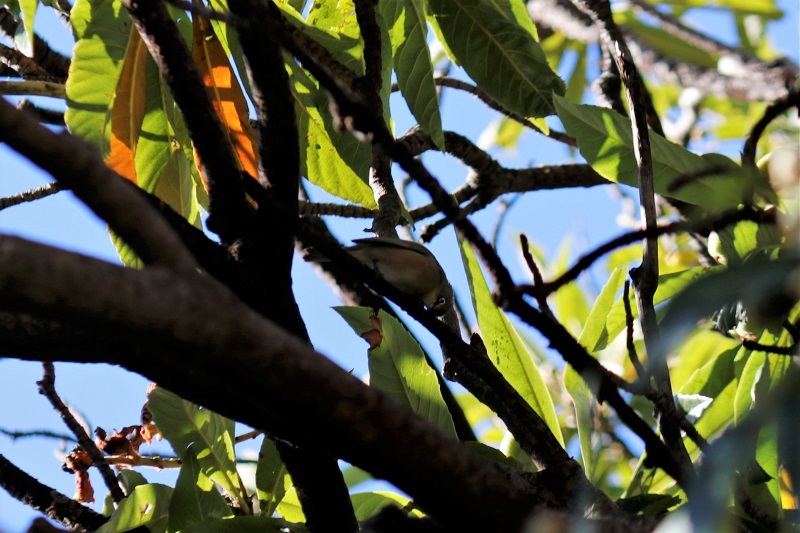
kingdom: Animalia
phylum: Chordata
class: Aves
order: Passeriformes
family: Zosteropidae
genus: Zosterops
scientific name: Zosterops pallidus
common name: Orange river white-eye
